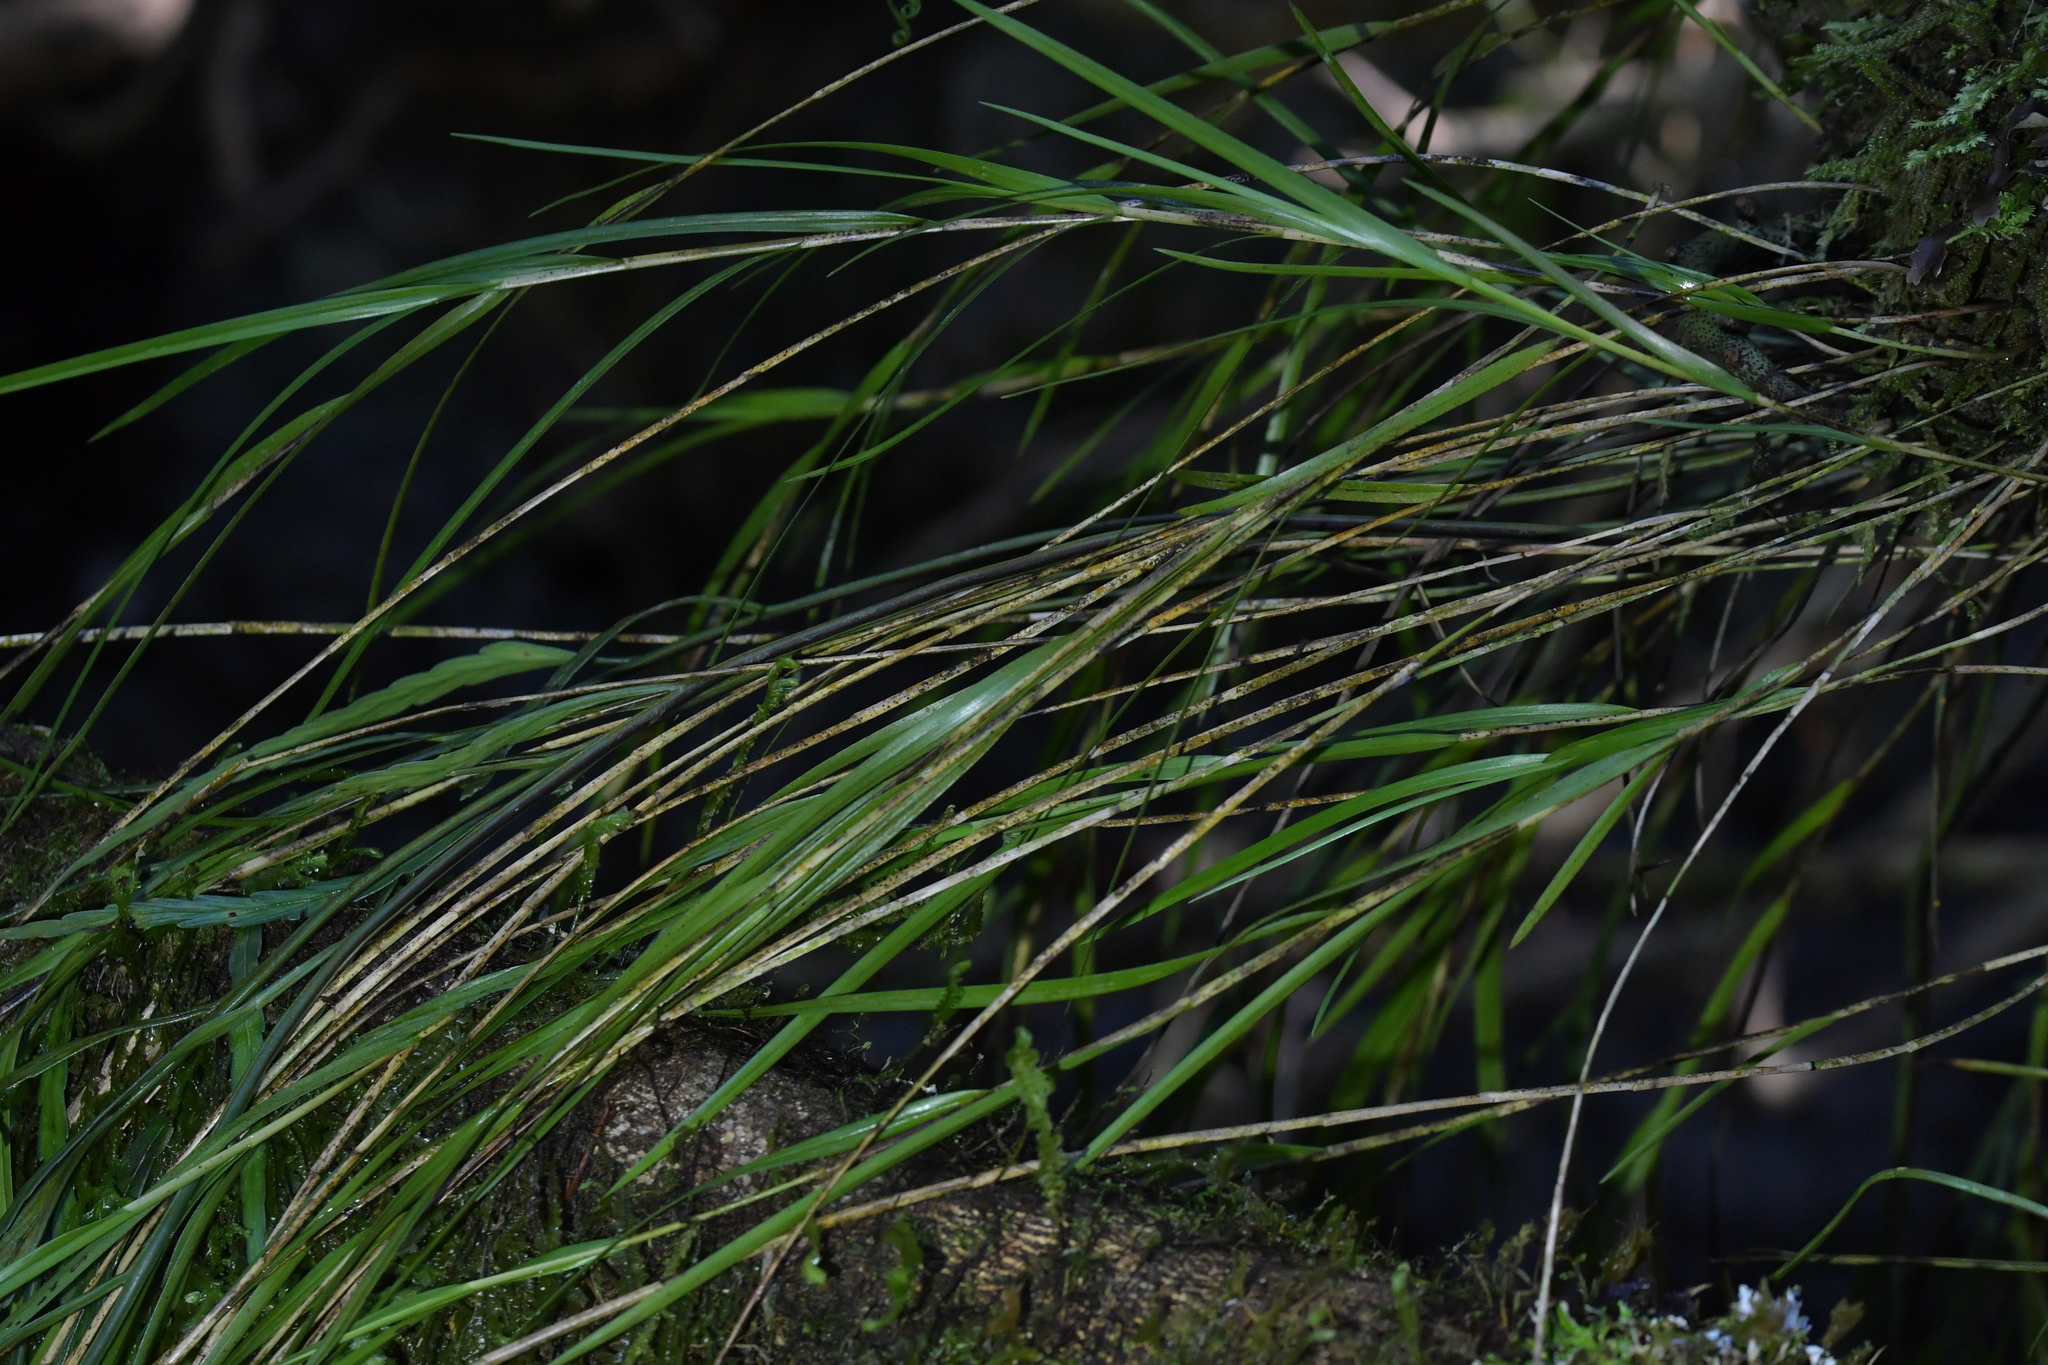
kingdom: Plantae
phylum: Tracheophyta
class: Liliopsida
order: Asparagales
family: Orchidaceae
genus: Earina
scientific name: Earina mucronata
